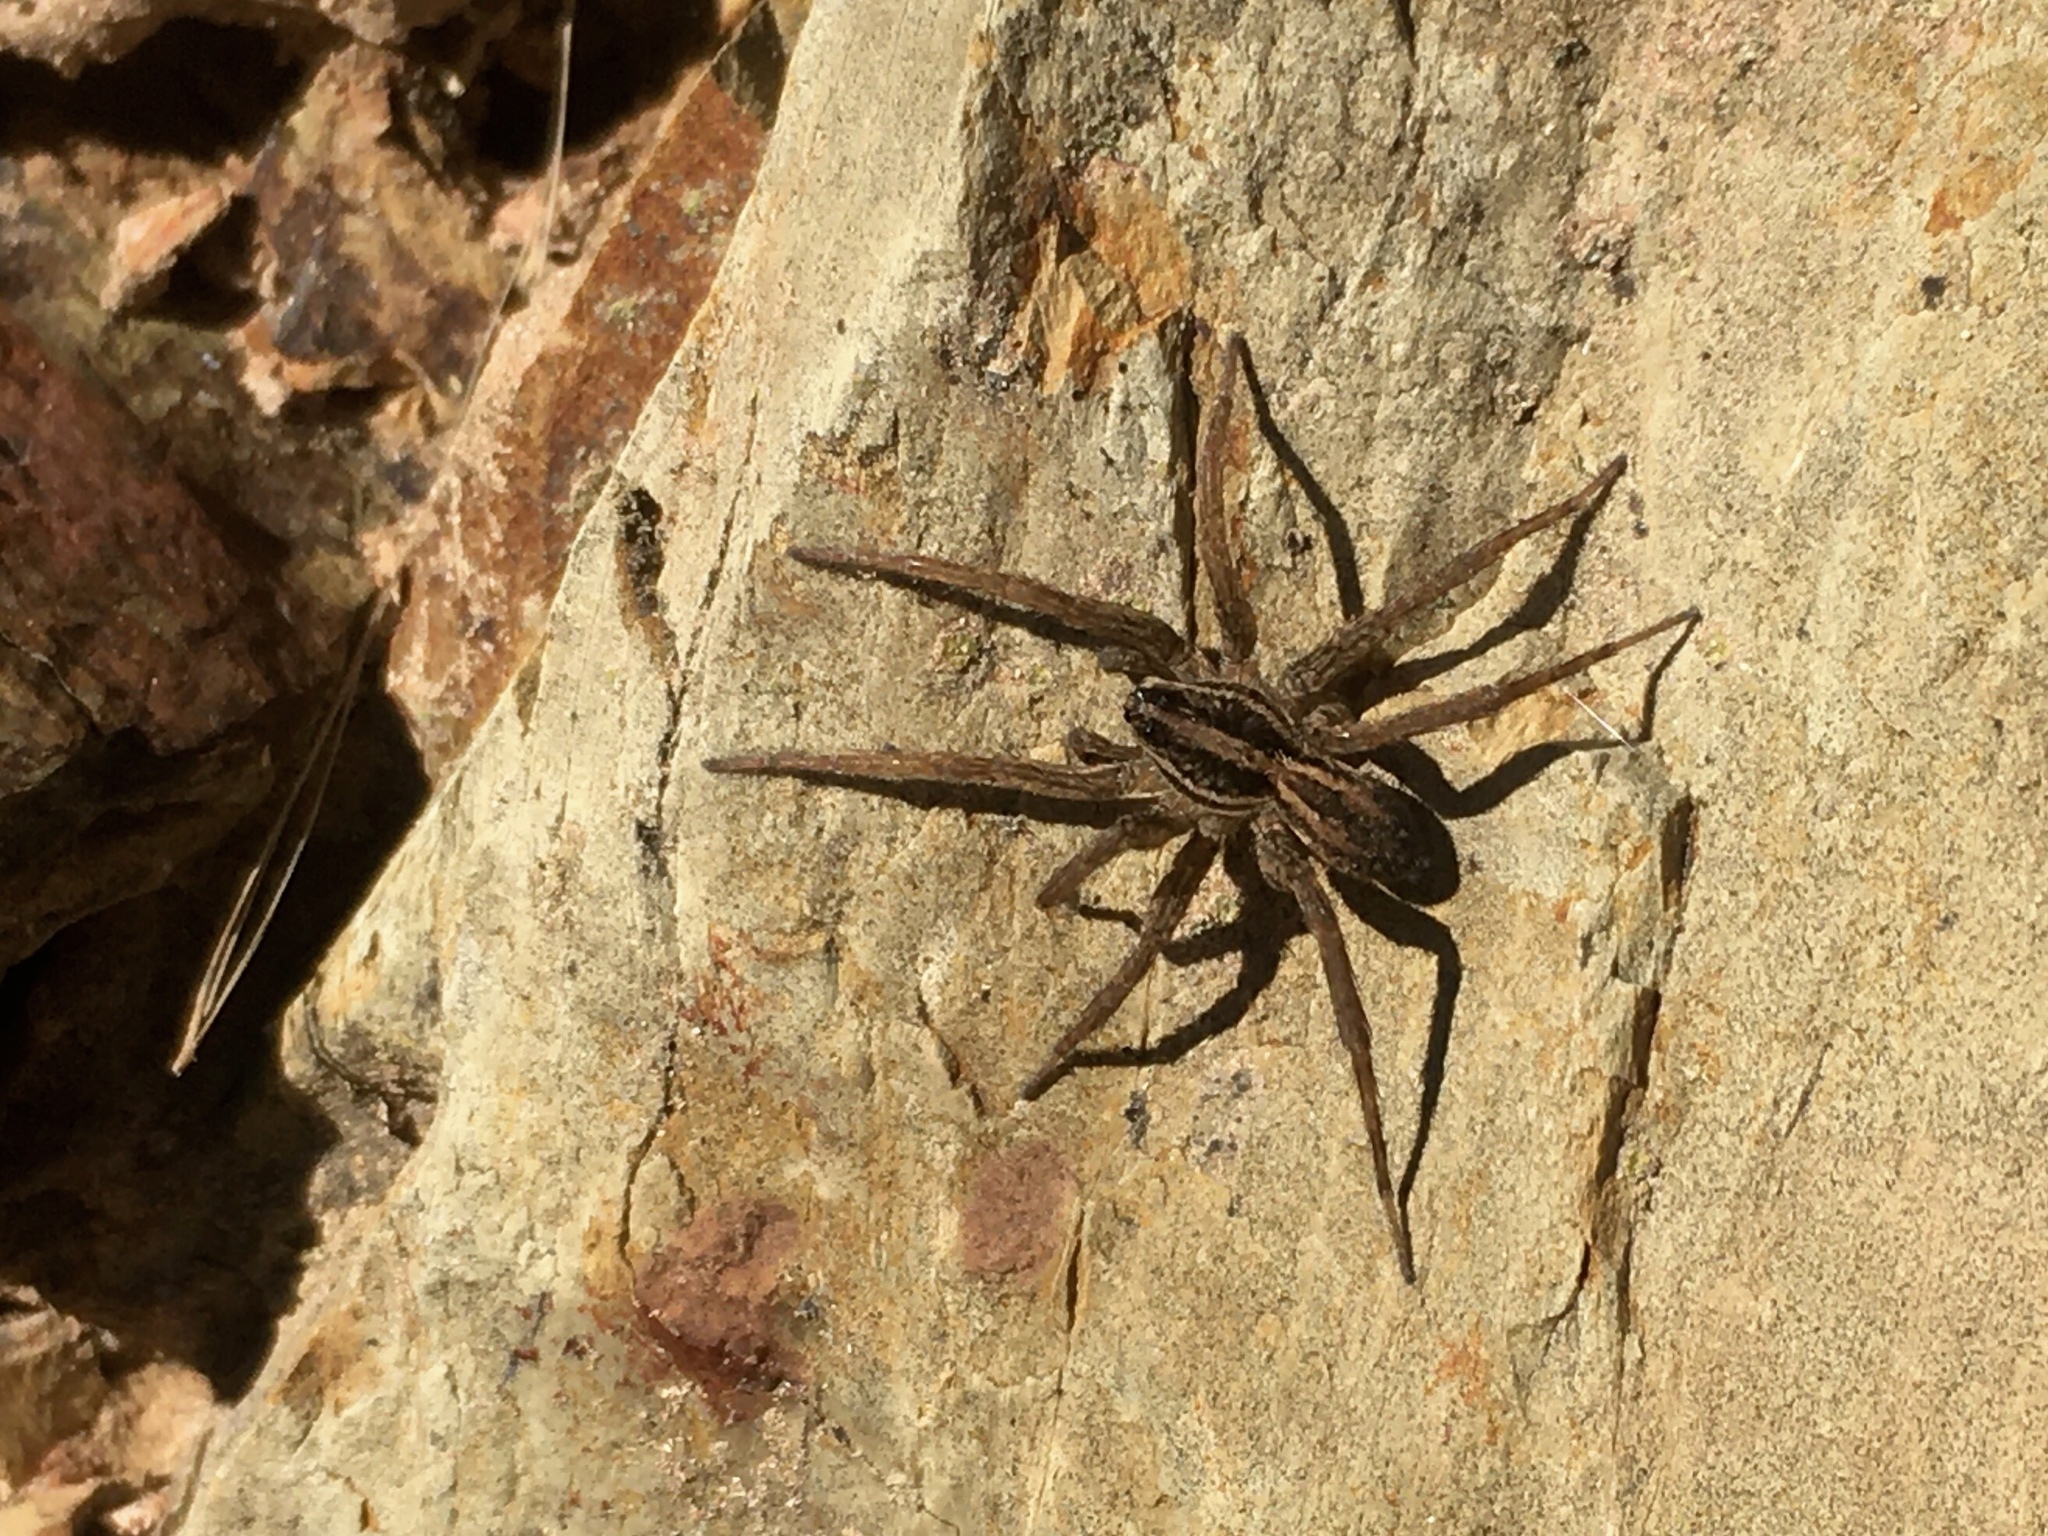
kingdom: Animalia
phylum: Arthropoda
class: Arachnida
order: Araneae
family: Lycosidae
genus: Alopecosa
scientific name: Alopecosa moesta
